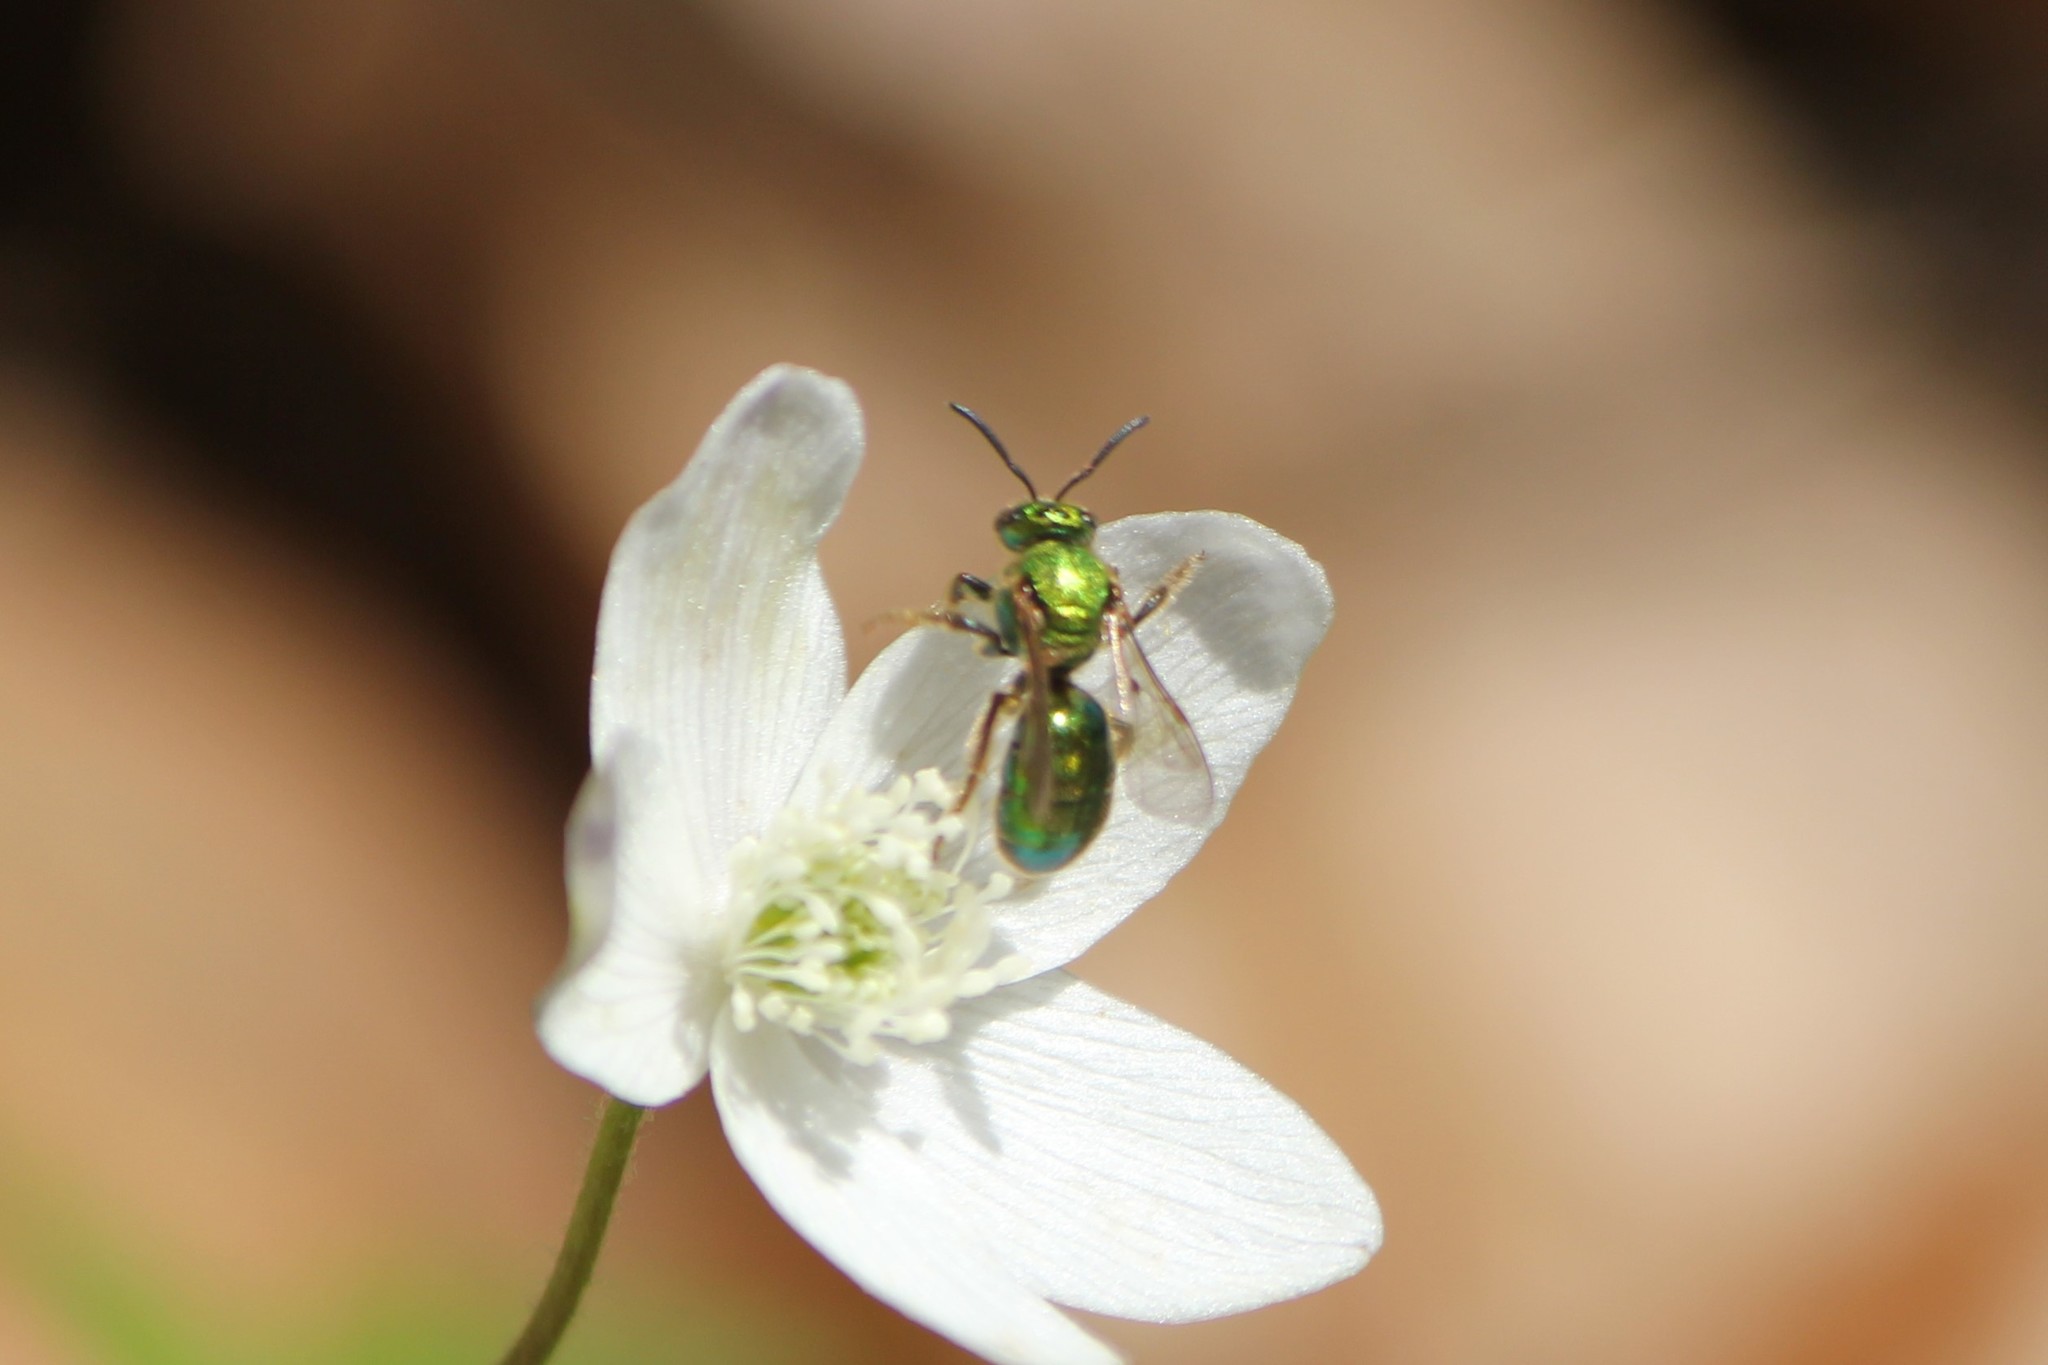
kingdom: Animalia
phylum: Arthropoda
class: Insecta
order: Hymenoptera
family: Halictidae
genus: Augochlorella
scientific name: Augochlorella aurata
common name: Golden sweat bee
